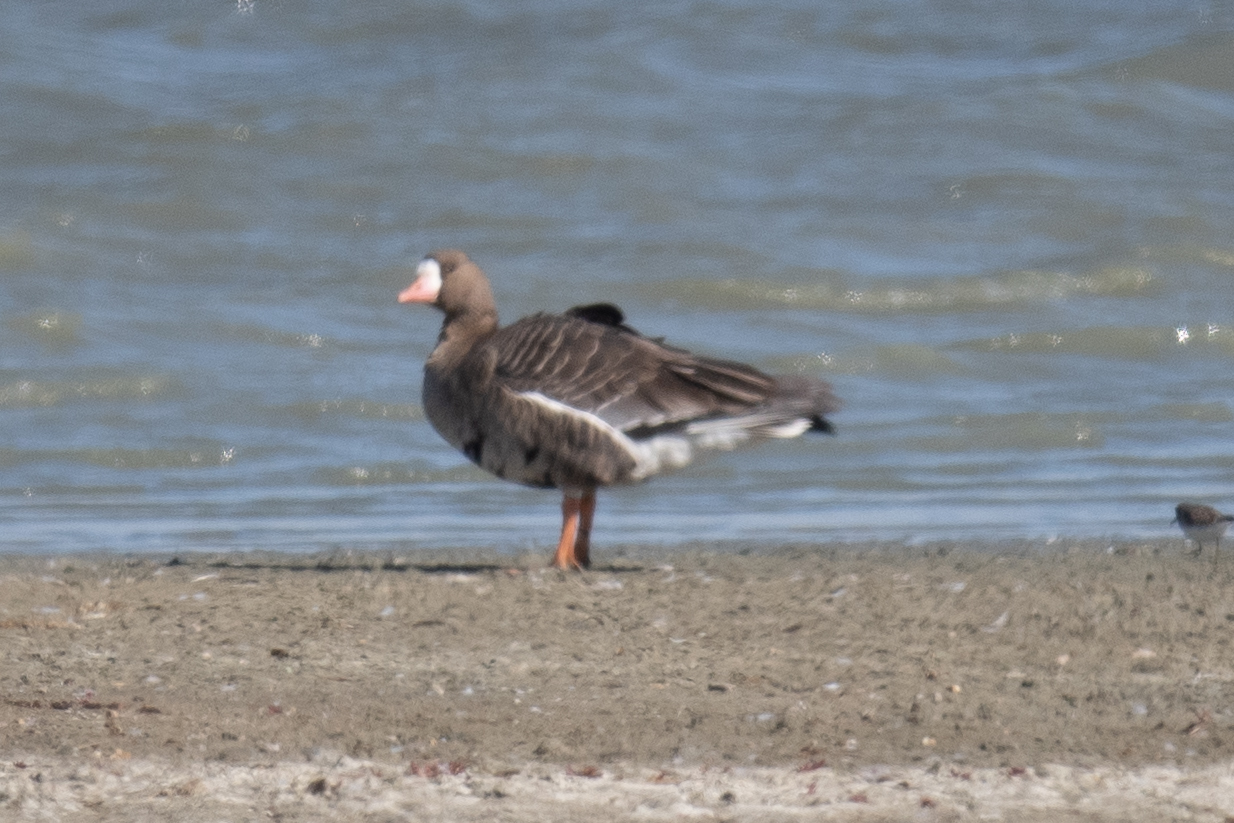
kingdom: Animalia
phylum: Chordata
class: Aves
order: Anseriformes
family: Anatidae
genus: Anser
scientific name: Anser albifrons
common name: Greater white-fronted goose
